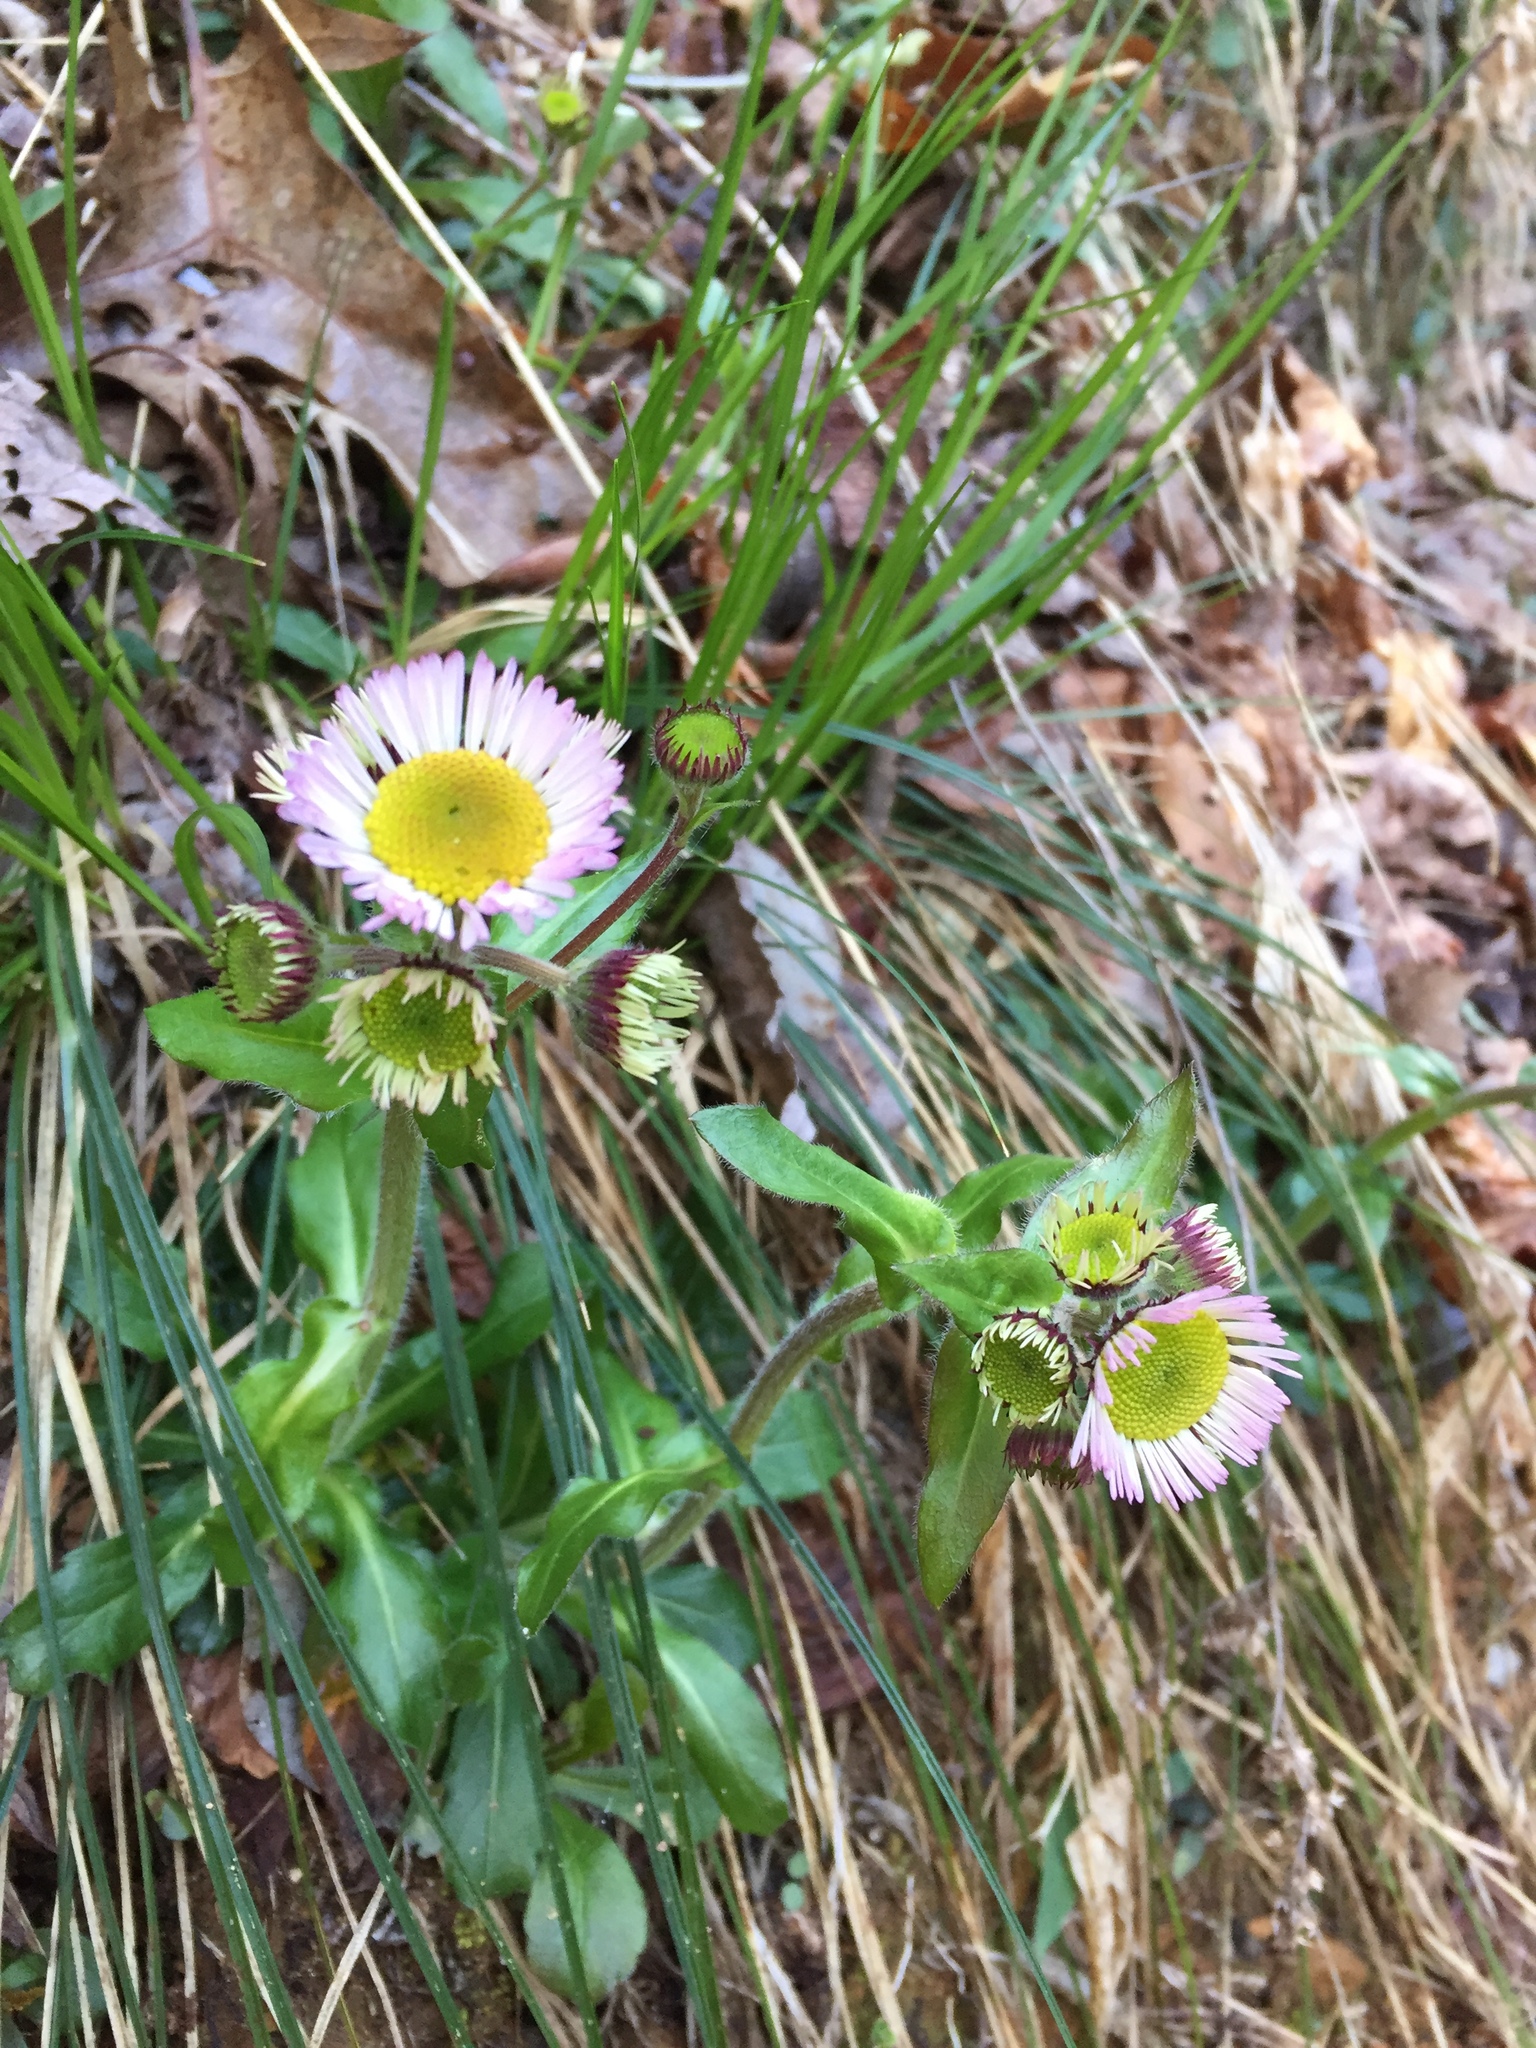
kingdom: Plantae
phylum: Tracheophyta
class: Magnoliopsida
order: Asterales
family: Asteraceae
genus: Erigeron
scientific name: Erigeron pulchellus
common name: Hairy fleabane
